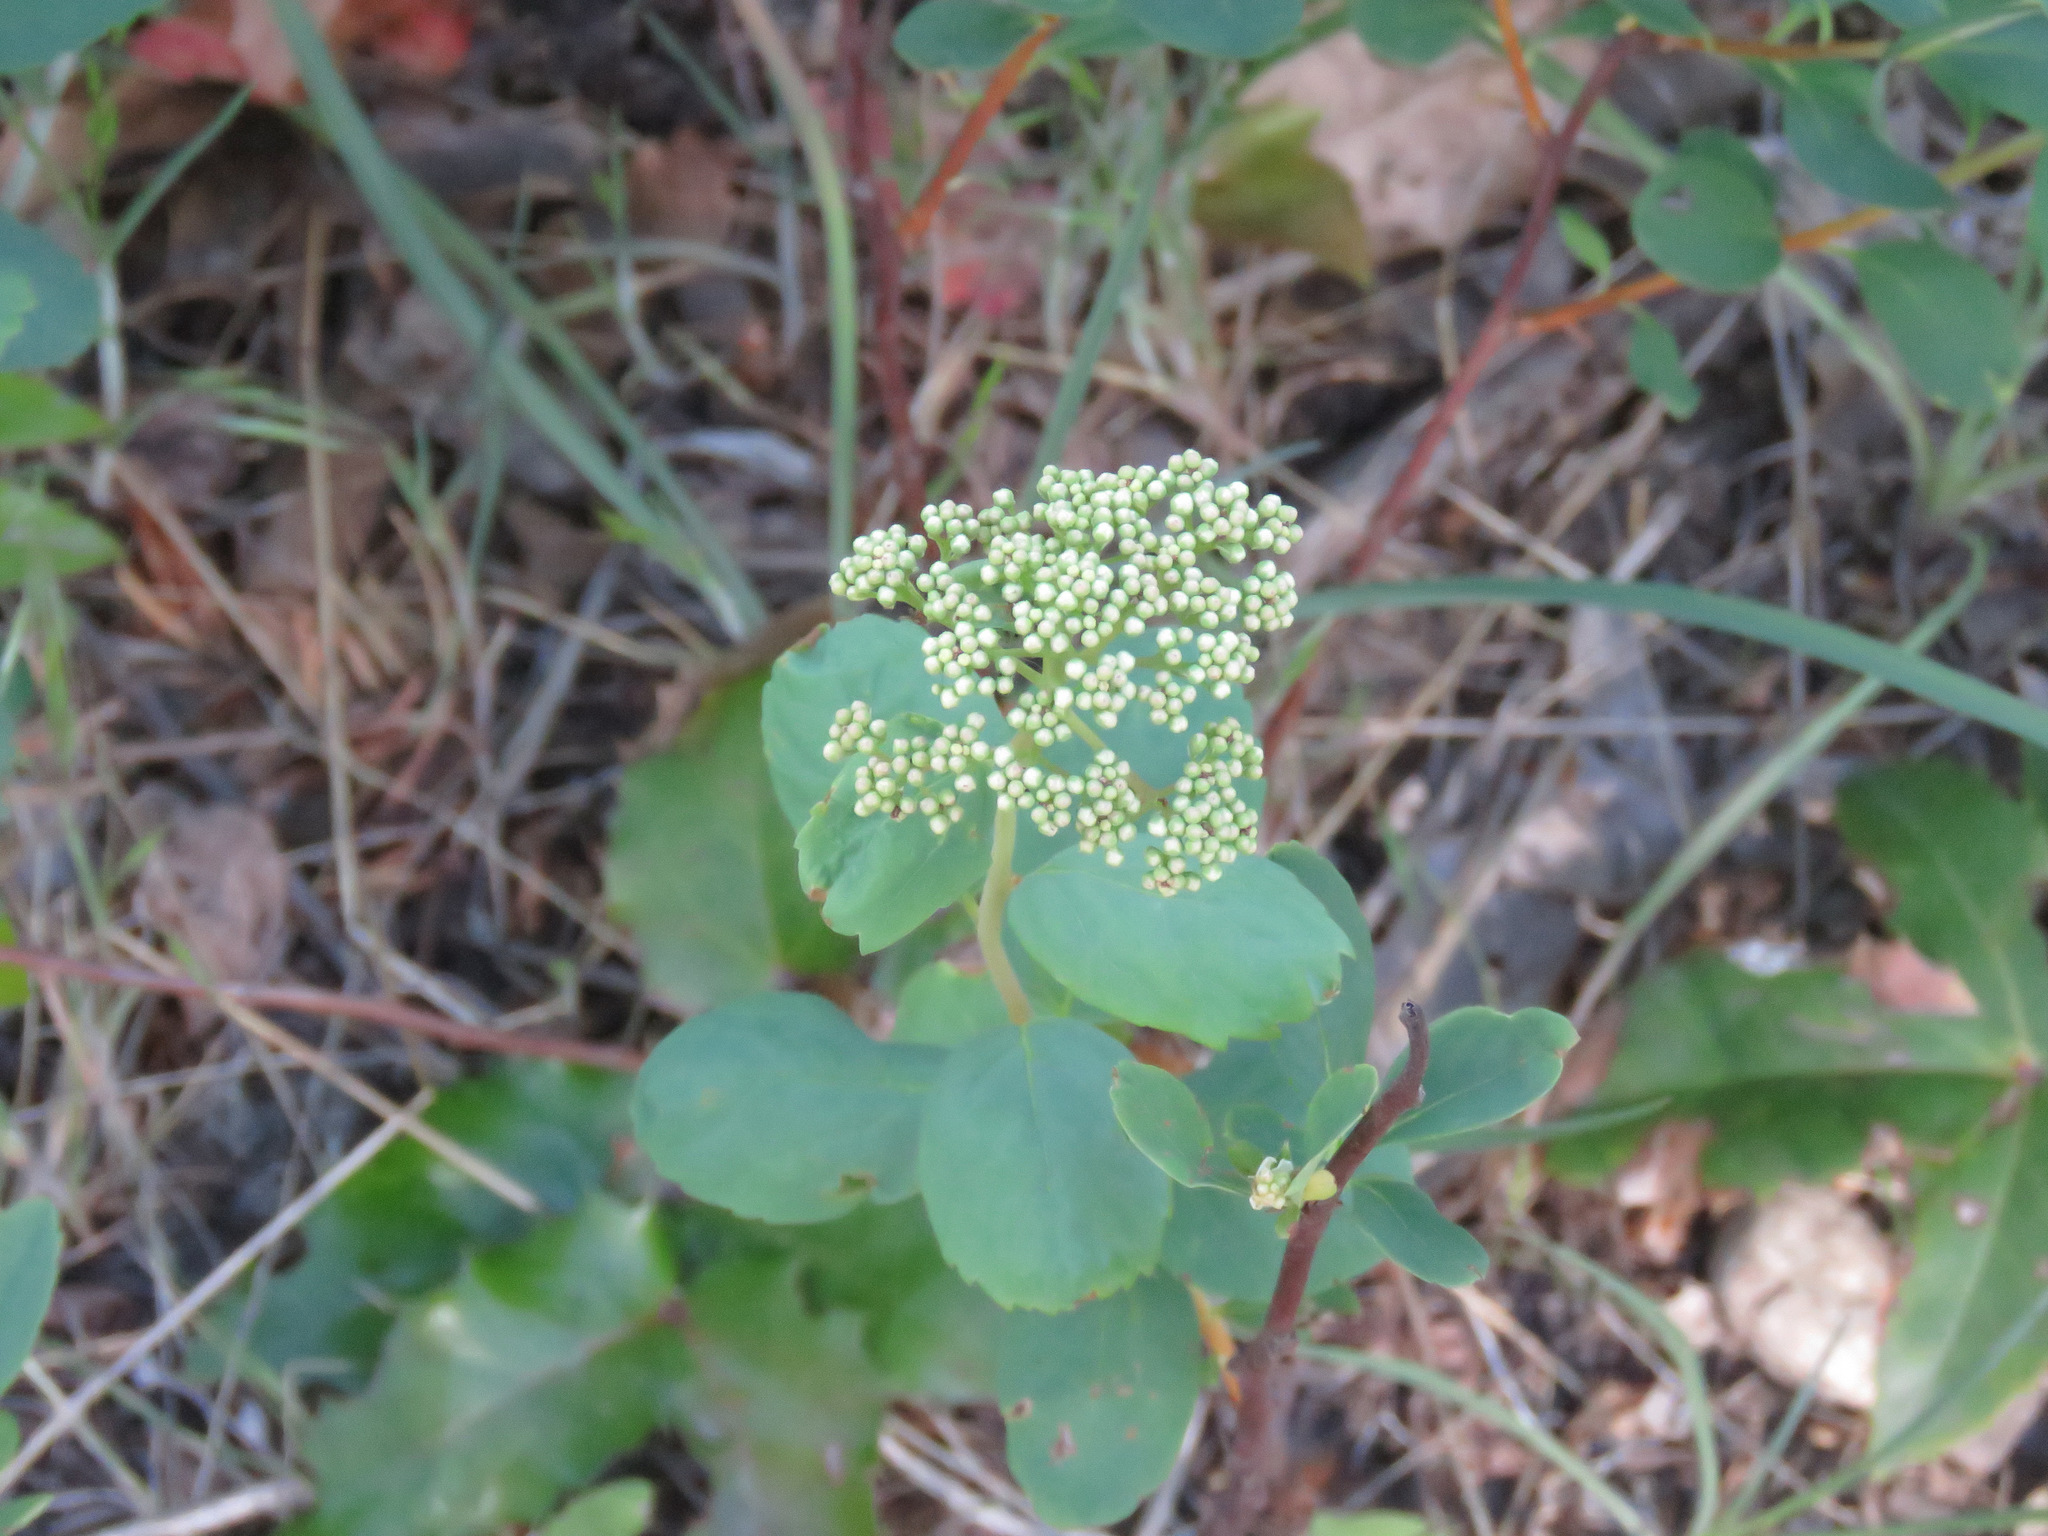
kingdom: Plantae
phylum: Tracheophyta
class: Magnoliopsida
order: Rosales
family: Rosaceae
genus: Spiraea
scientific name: Spiraea lucida
